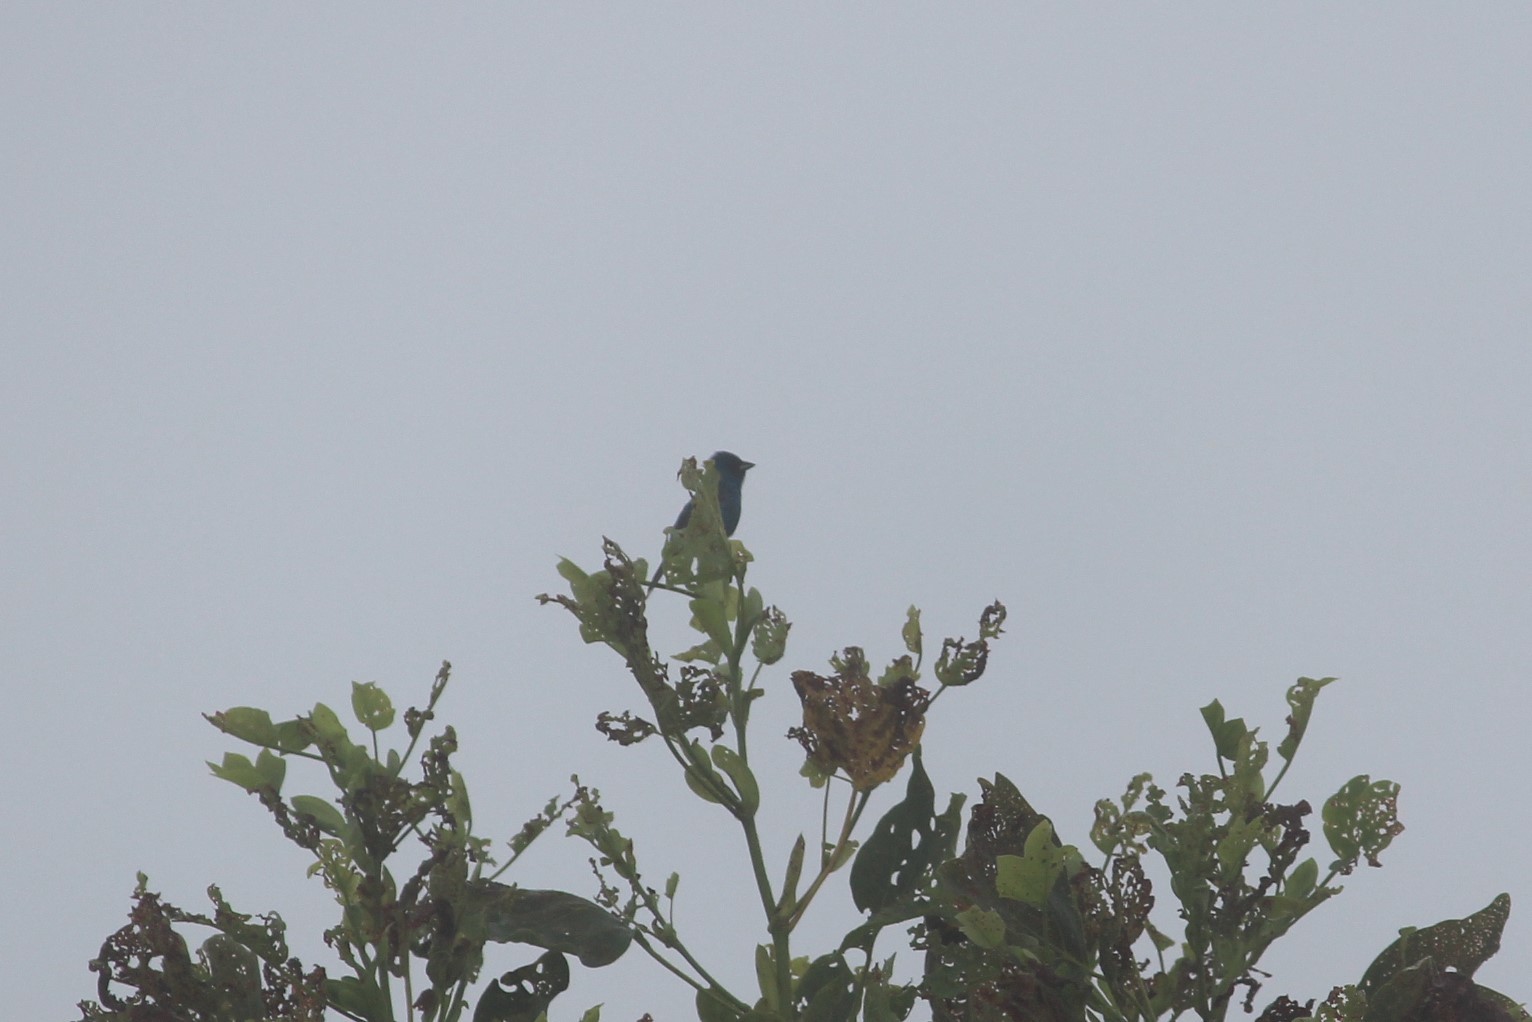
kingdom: Animalia
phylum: Chordata
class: Aves
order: Passeriformes
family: Cardinalidae
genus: Passerina
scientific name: Passerina cyanea
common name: Indigo bunting
